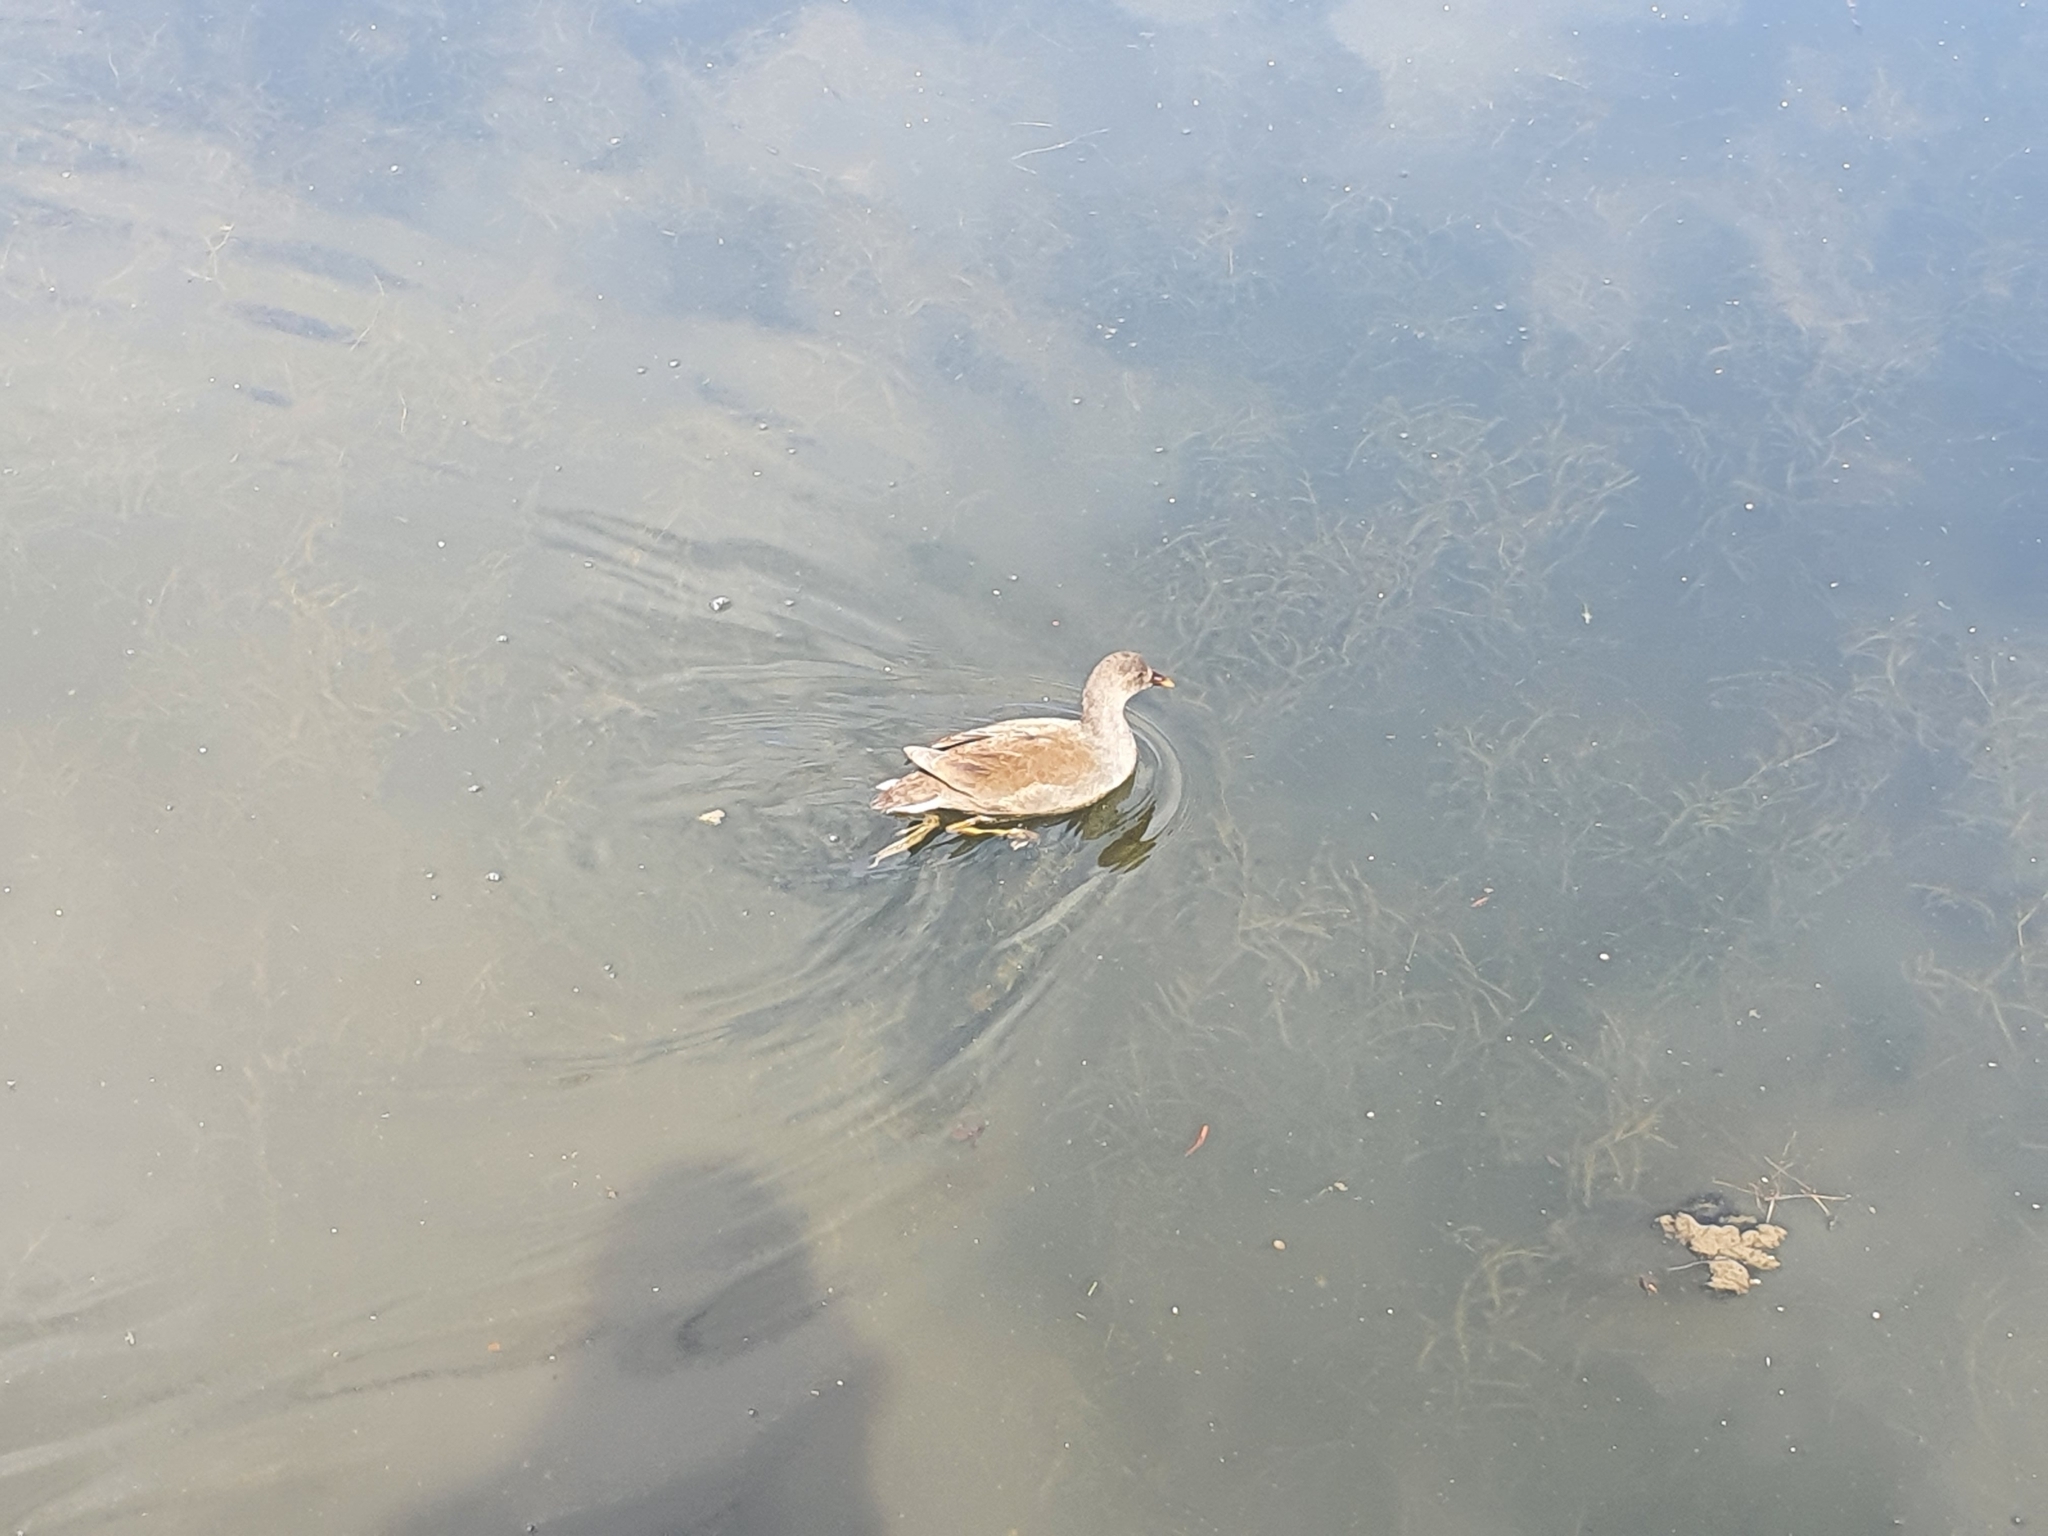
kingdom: Animalia
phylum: Chordata
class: Aves
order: Gruiformes
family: Rallidae
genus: Gallinula
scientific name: Gallinula tenebrosa
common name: Dusky moorhen
